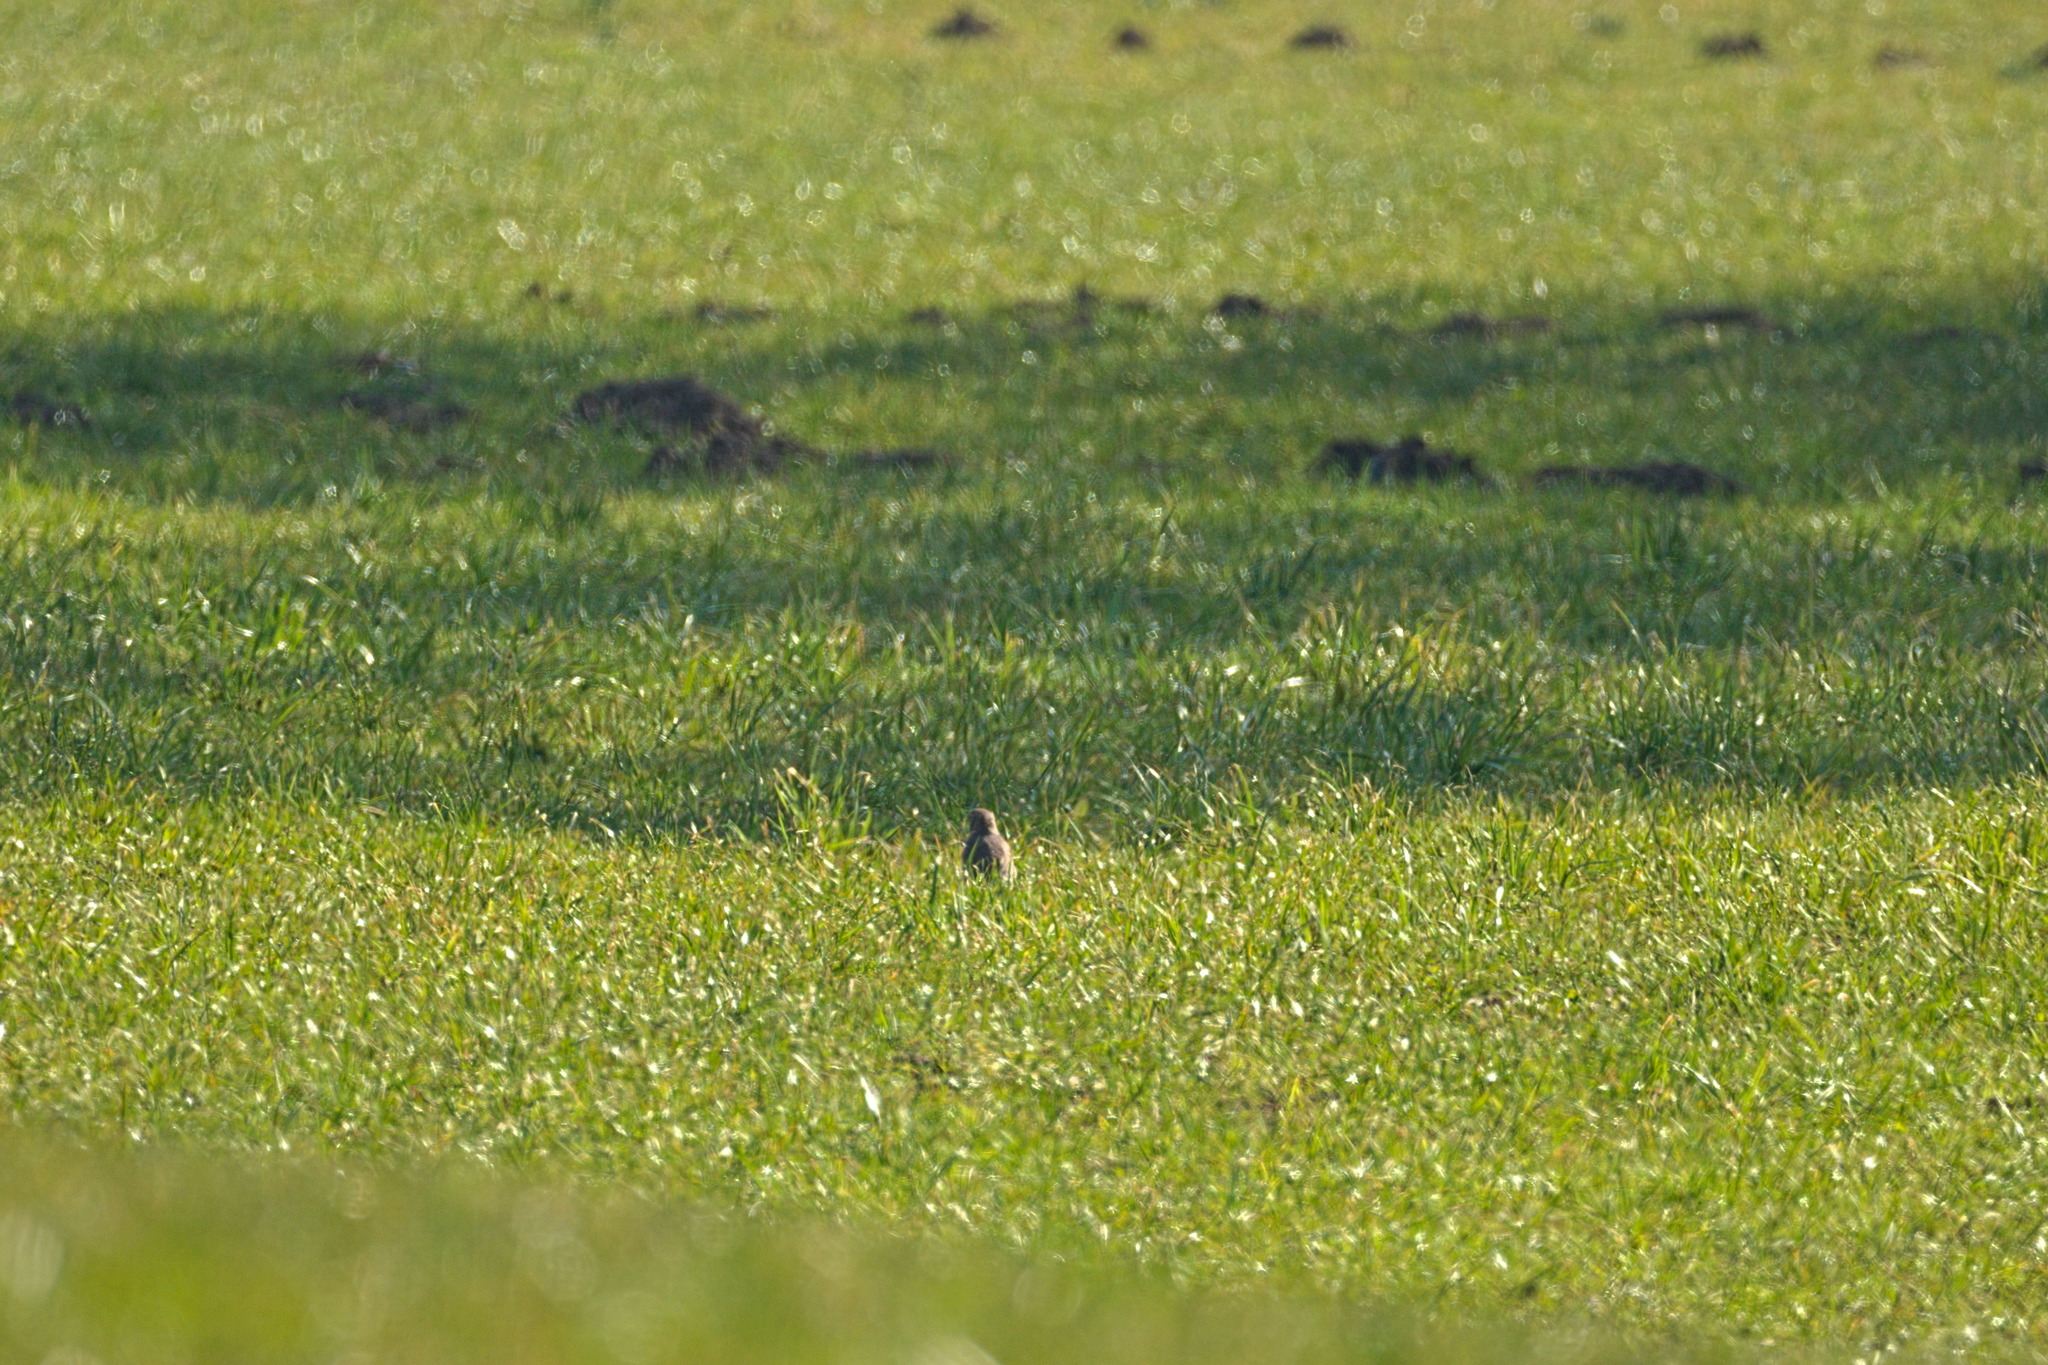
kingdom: Animalia
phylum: Chordata
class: Aves
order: Passeriformes
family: Turdidae
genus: Turdus
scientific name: Turdus philomelos
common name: Song thrush
